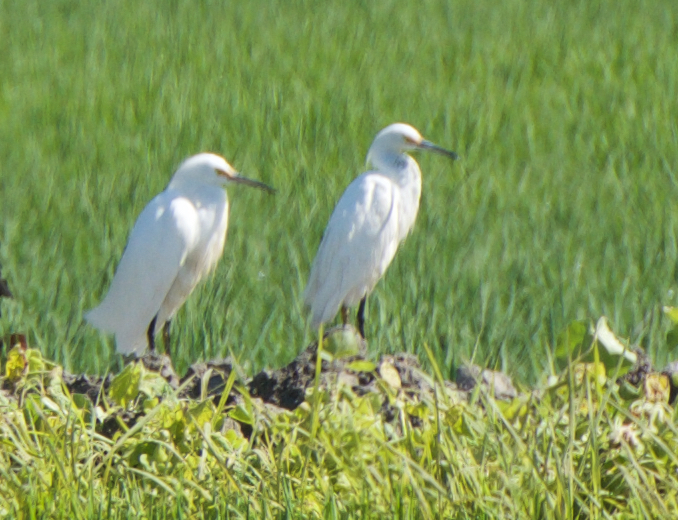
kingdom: Animalia
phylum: Chordata
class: Aves
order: Pelecaniformes
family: Ardeidae
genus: Egretta
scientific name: Egretta thula
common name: Snowy egret
